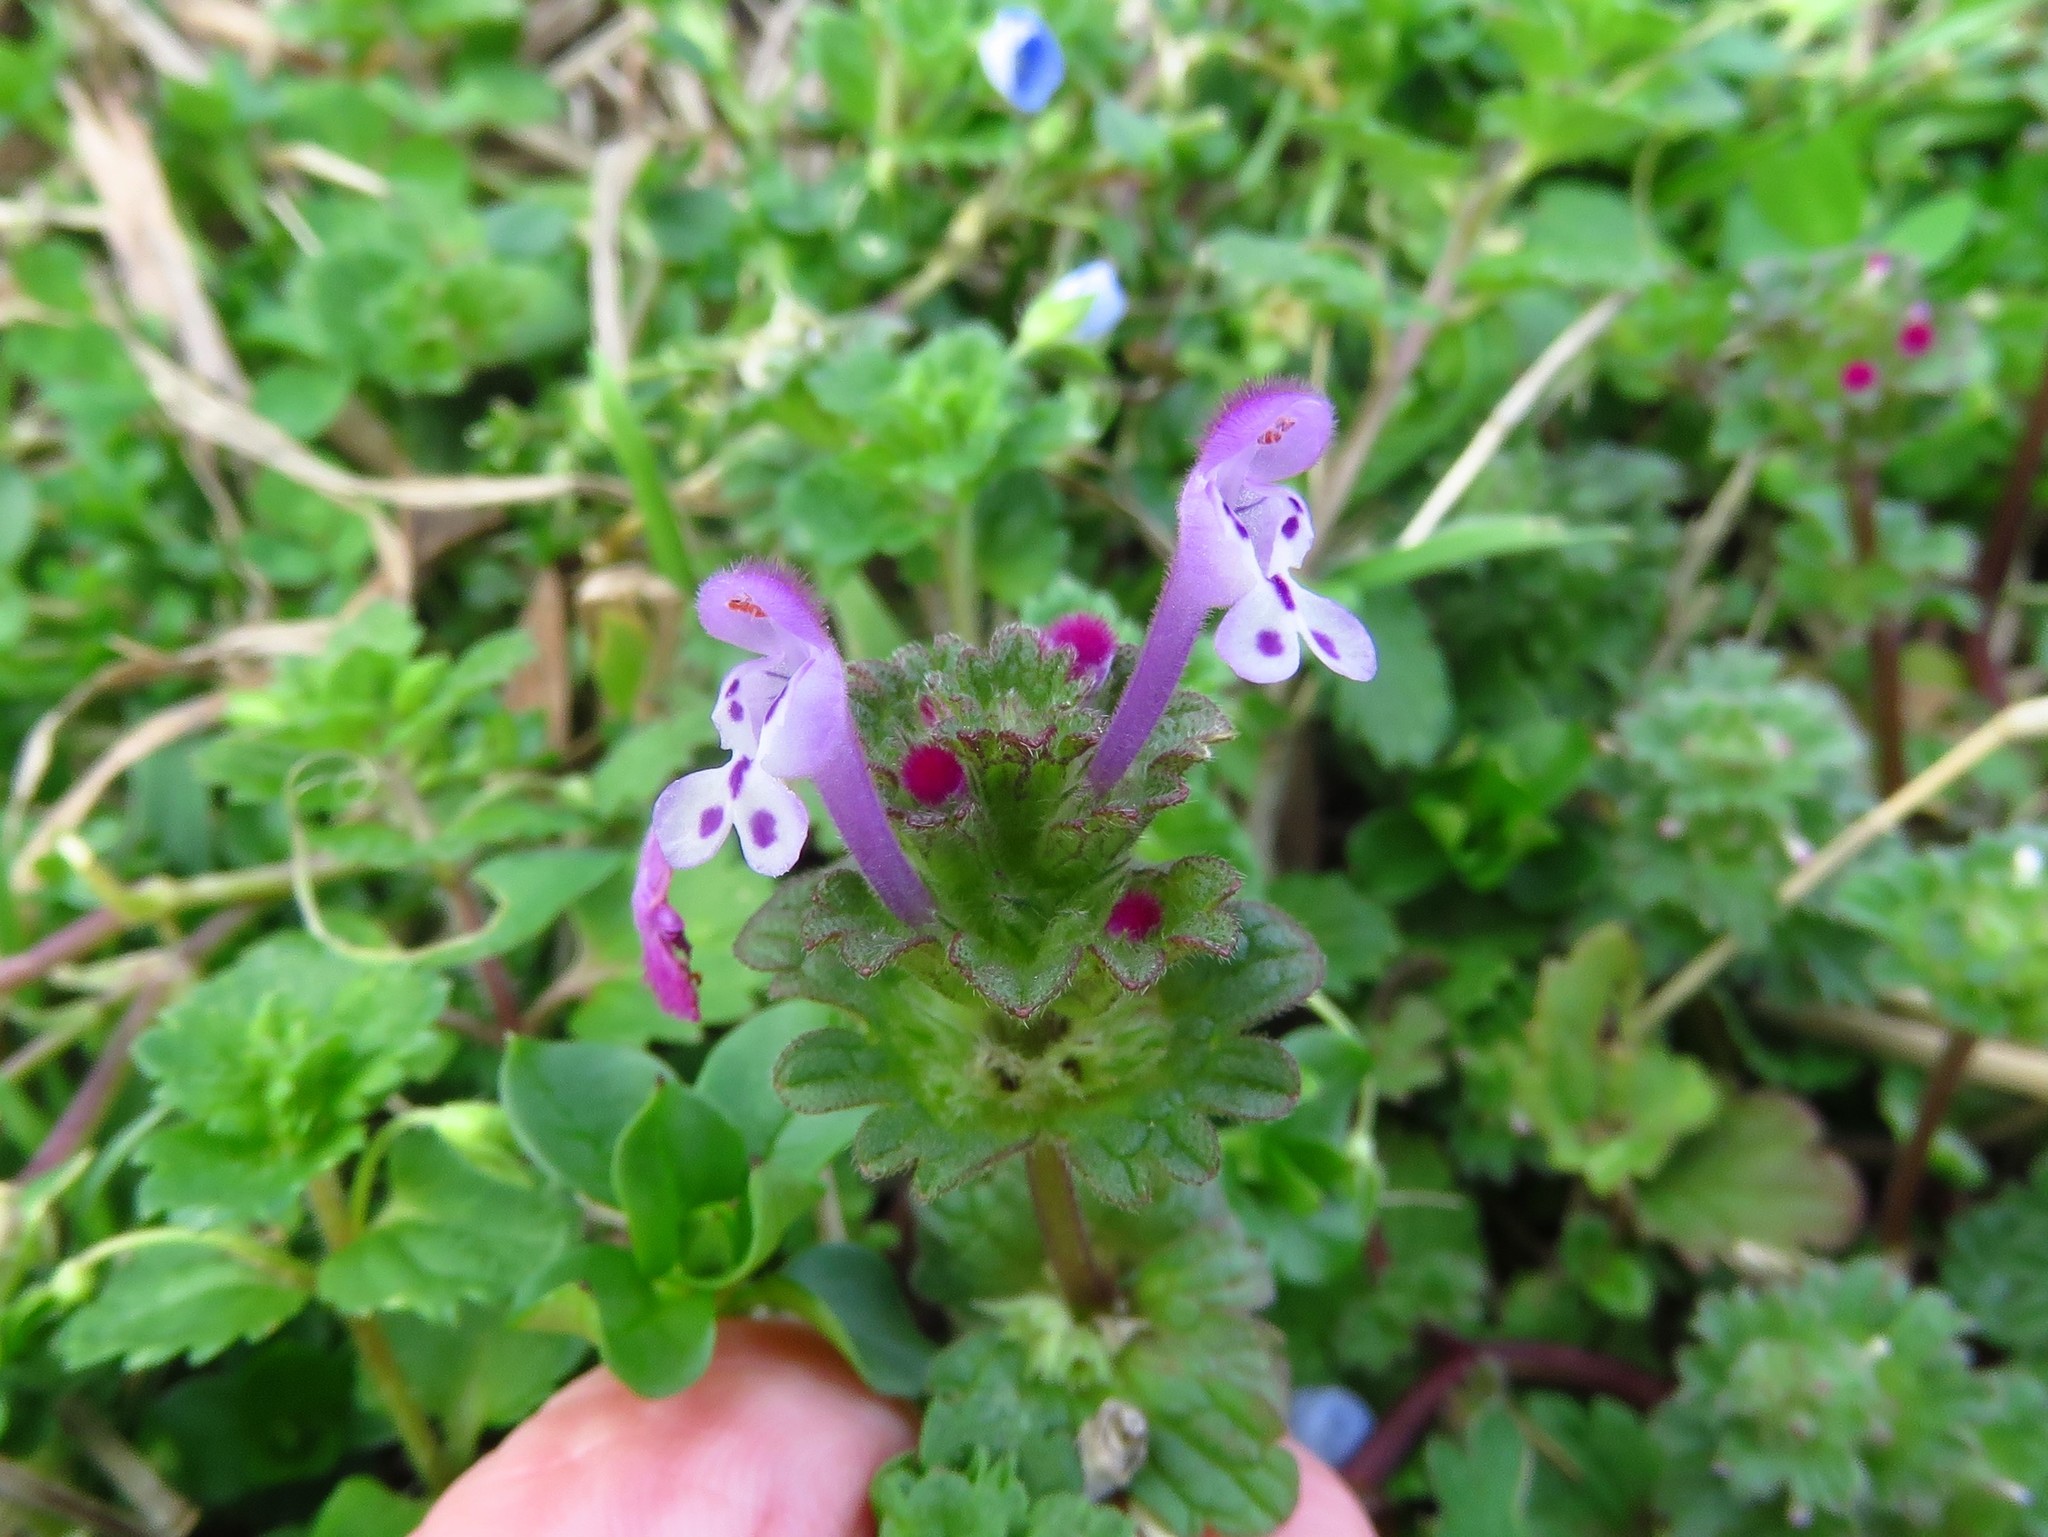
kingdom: Plantae
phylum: Tracheophyta
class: Magnoliopsida
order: Lamiales
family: Lamiaceae
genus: Lamium
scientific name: Lamium amplexicaule
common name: Henbit dead-nettle
